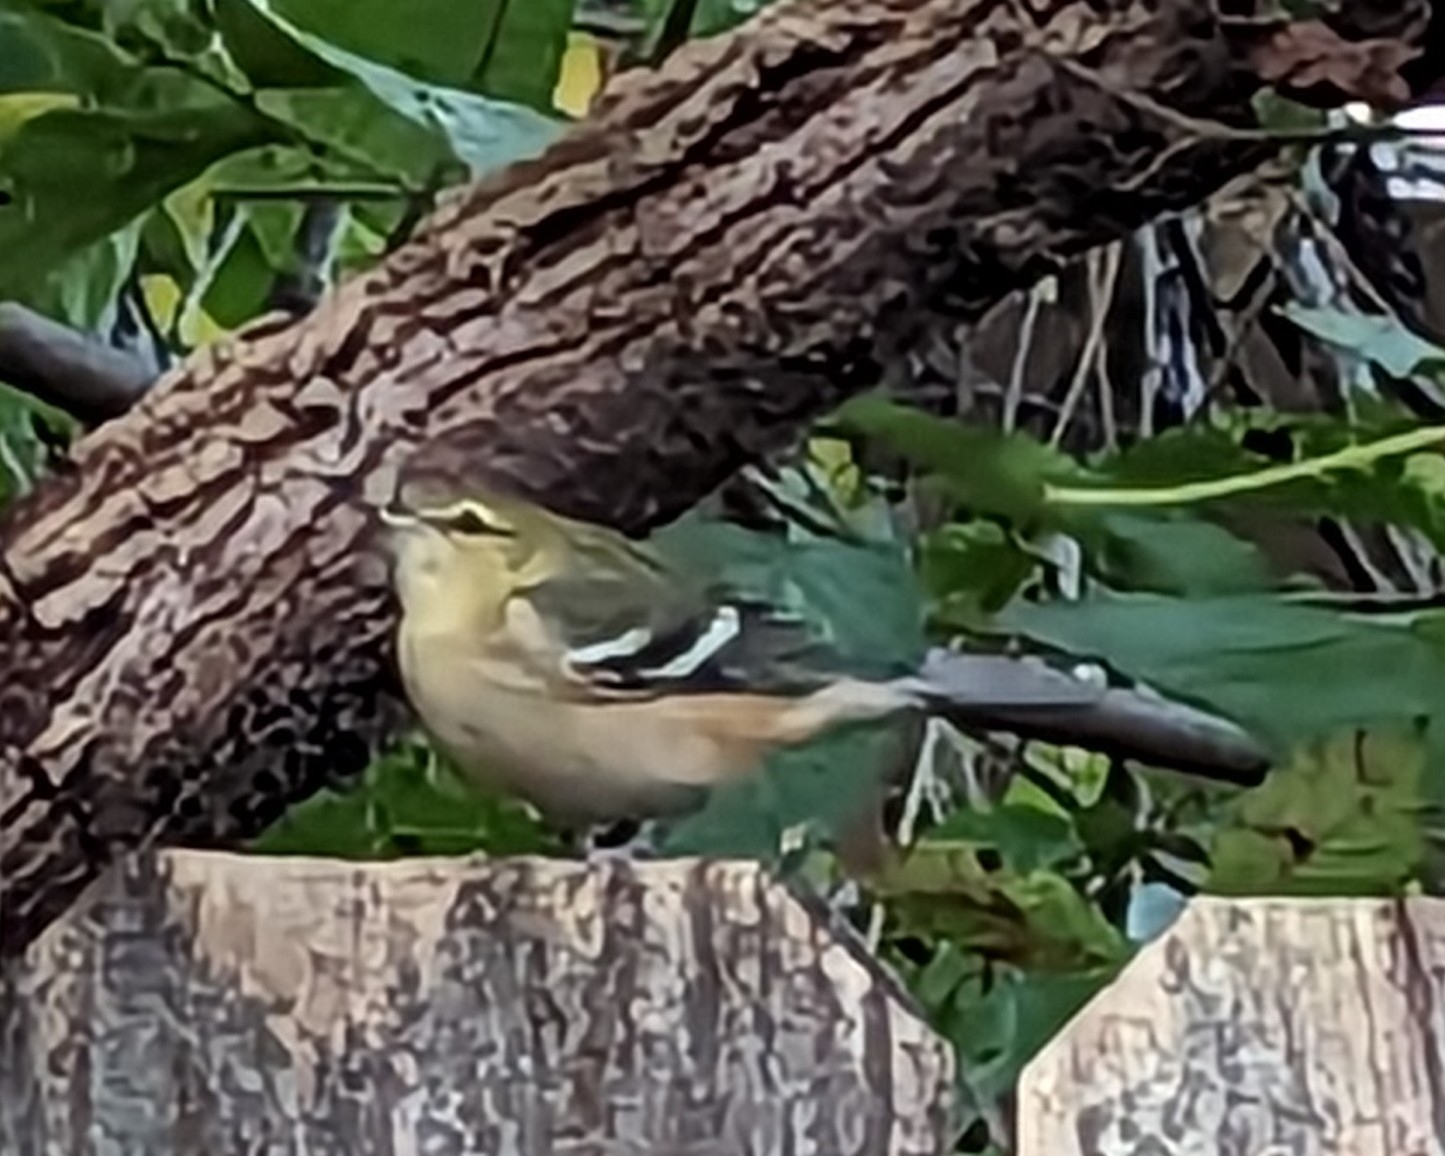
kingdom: Animalia
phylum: Chordata
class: Aves
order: Passeriformes
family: Parulidae
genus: Setophaga
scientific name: Setophaga castanea
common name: Bay-breasted warbler
